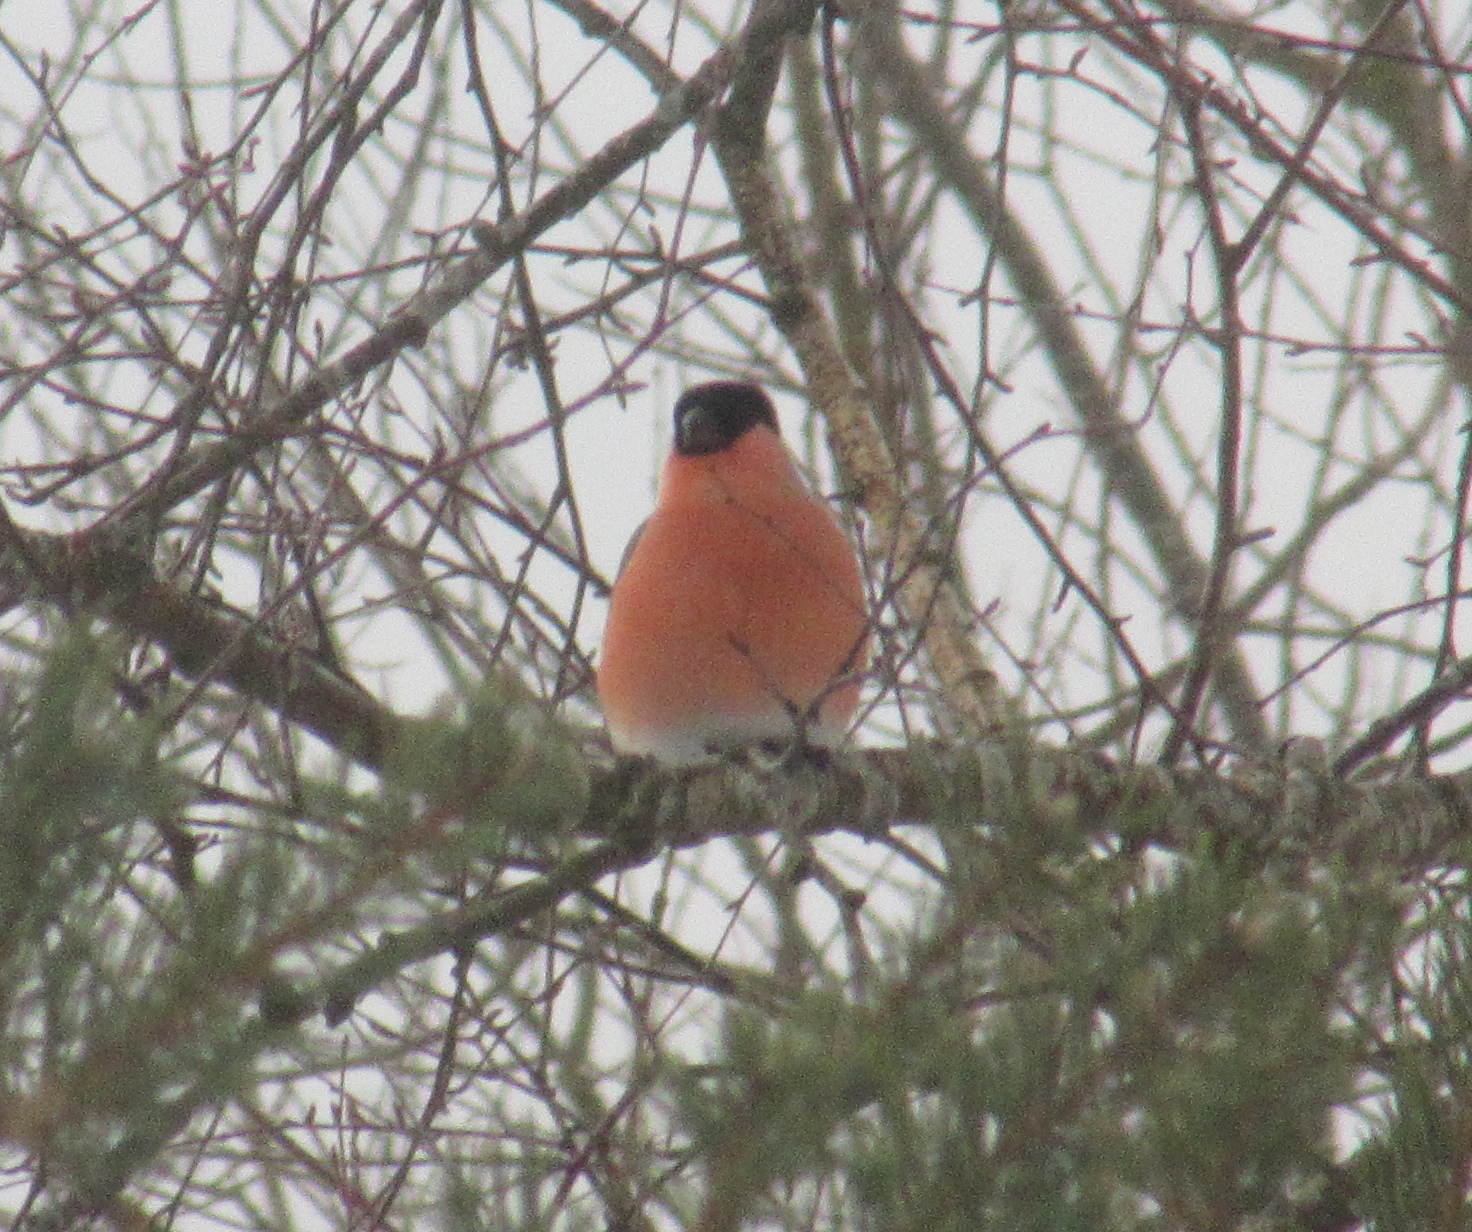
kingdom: Animalia
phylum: Chordata
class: Aves
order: Passeriformes
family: Fringillidae
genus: Pyrrhula
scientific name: Pyrrhula pyrrhula
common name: Eurasian bullfinch
